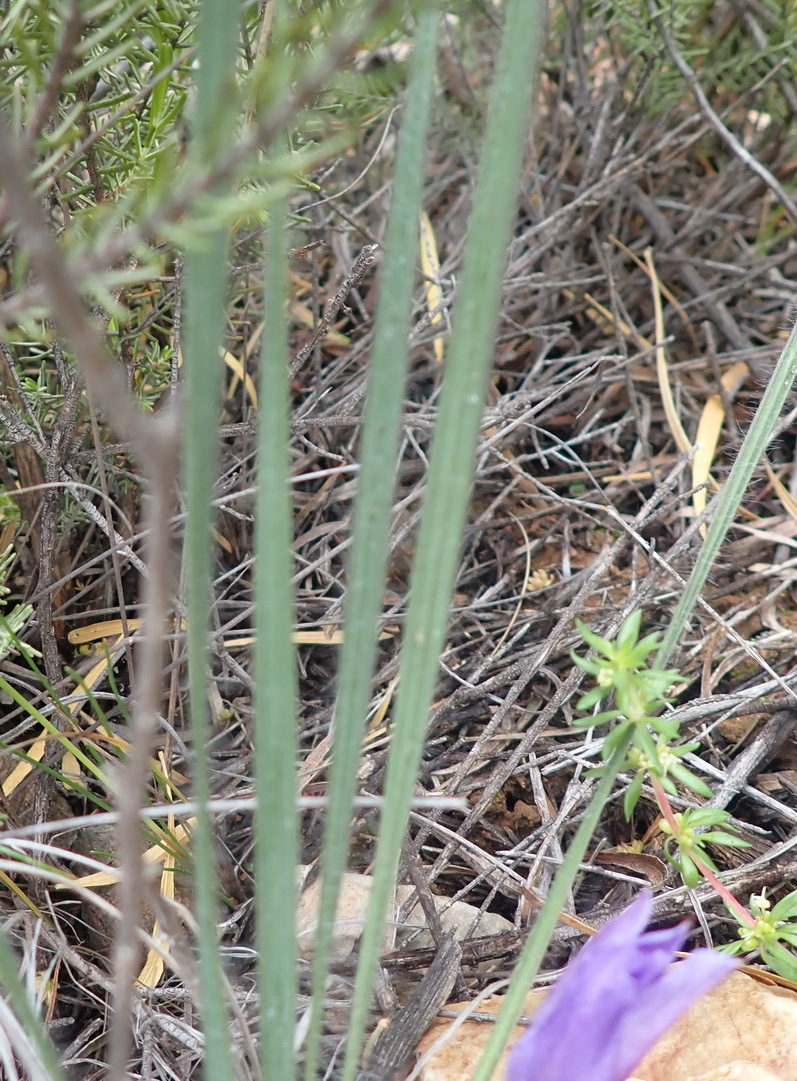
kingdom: Plantae
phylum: Tracheophyta
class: Liliopsida
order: Asparagales
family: Iridaceae
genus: Babiana
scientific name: Babiana sambucina
